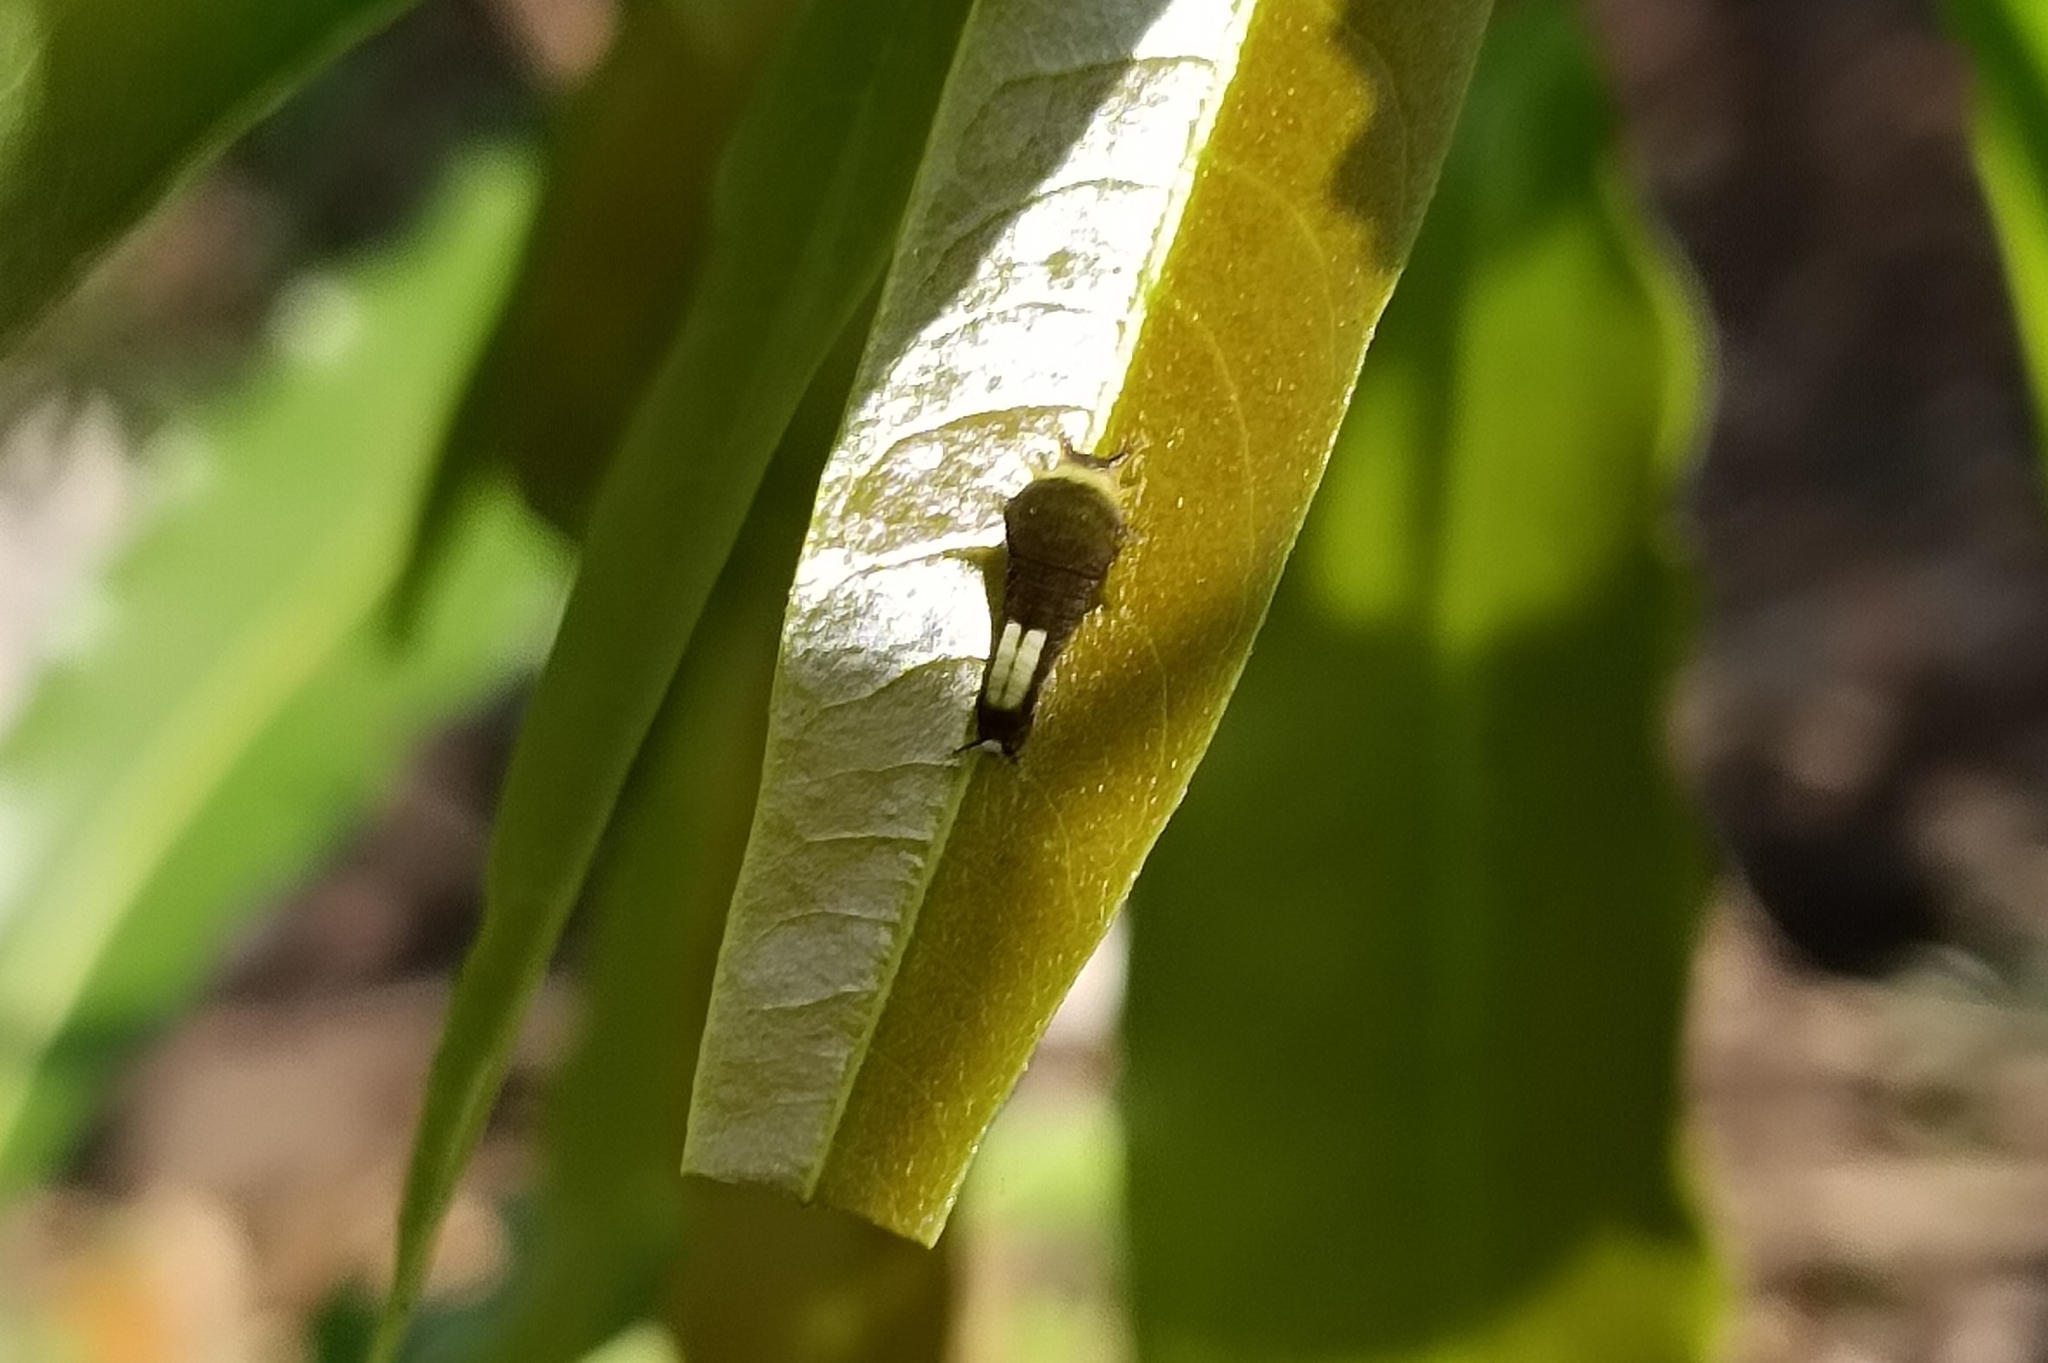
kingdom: Animalia
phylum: Arthropoda
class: Insecta
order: Lepidoptera
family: Papilionidae
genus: Graphium
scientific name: Graphium agamemnon
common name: Tailed jay
